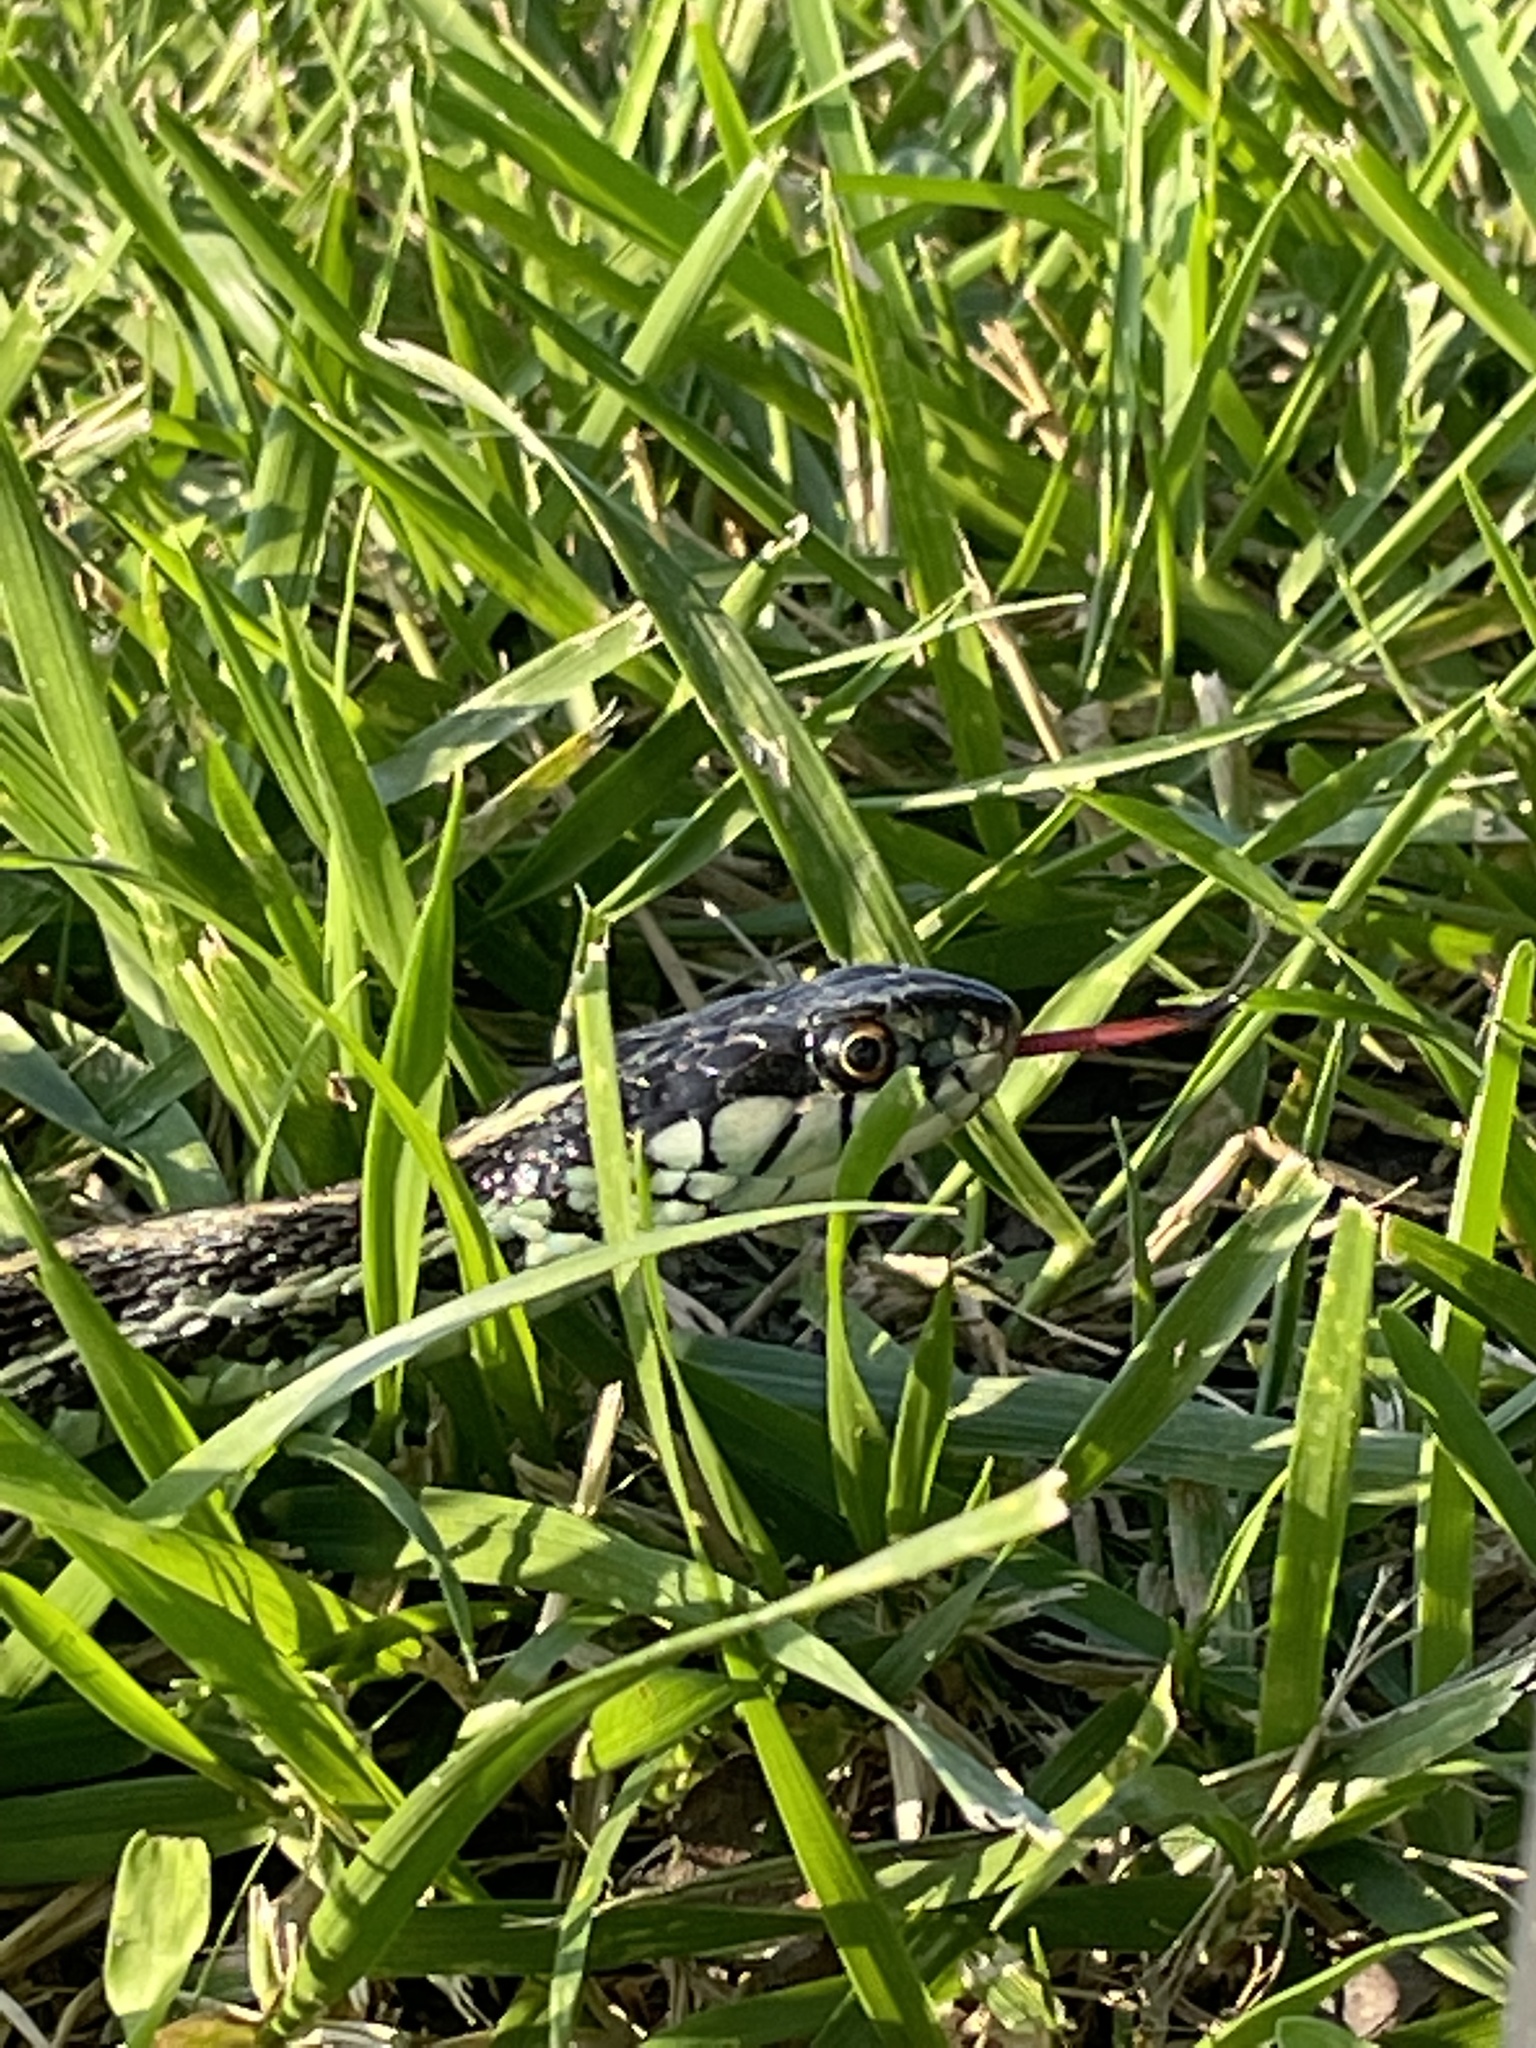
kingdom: Animalia
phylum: Chordata
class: Squamata
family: Colubridae
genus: Thamnophis
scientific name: Thamnophis sirtalis
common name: Common garter snake
